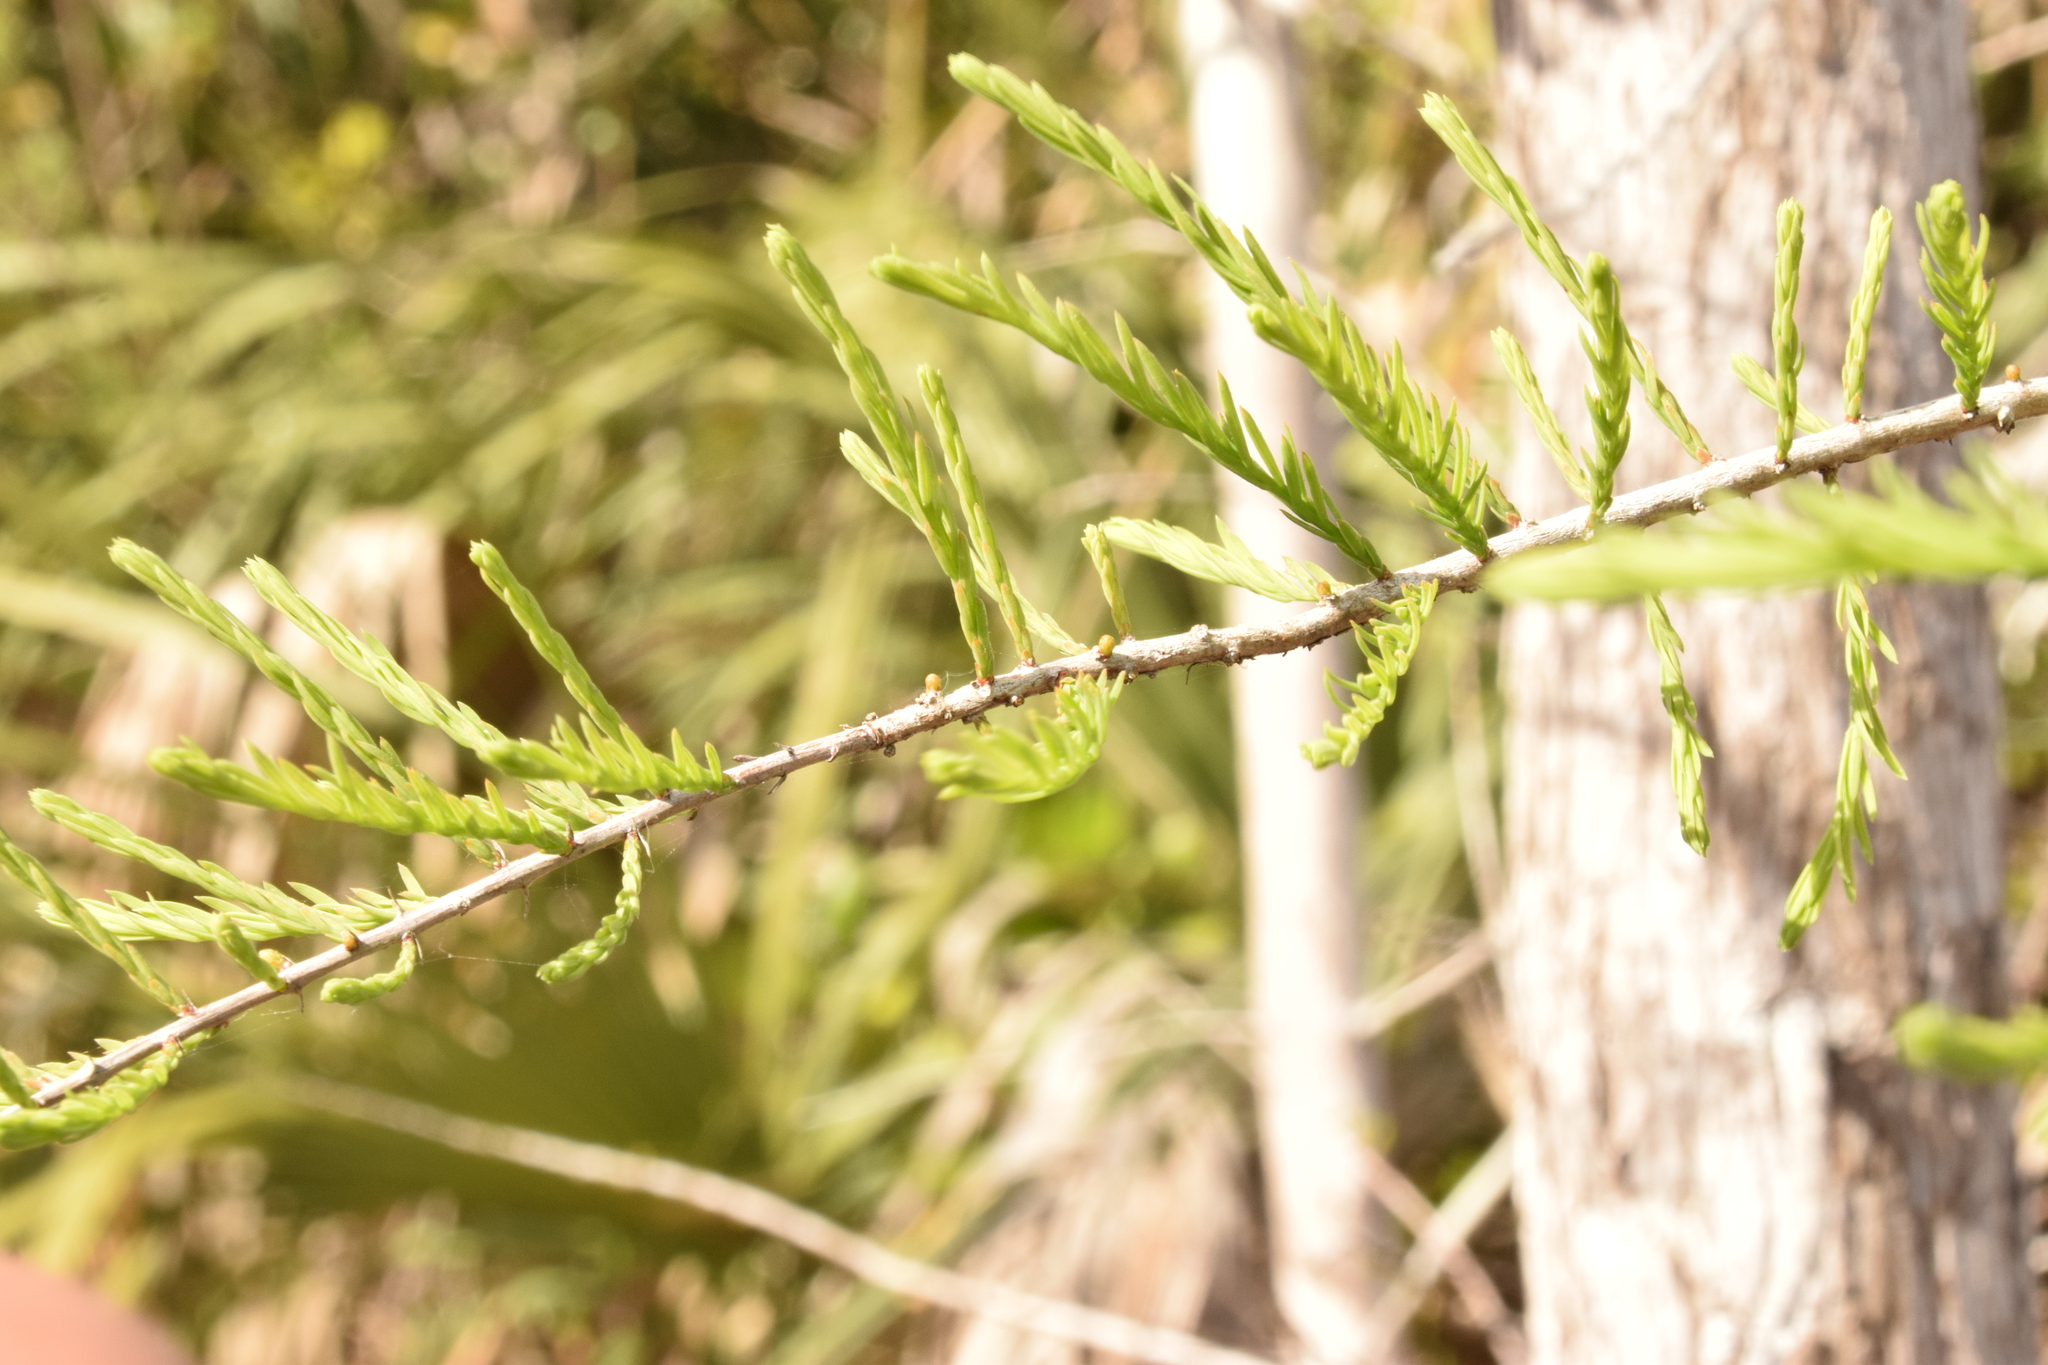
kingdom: Plantae
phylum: Tracheophyta
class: Pinopsida
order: Pinales
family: Cupressaceae
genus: Taxodium
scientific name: Taxodium distichum
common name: Bald cypress
